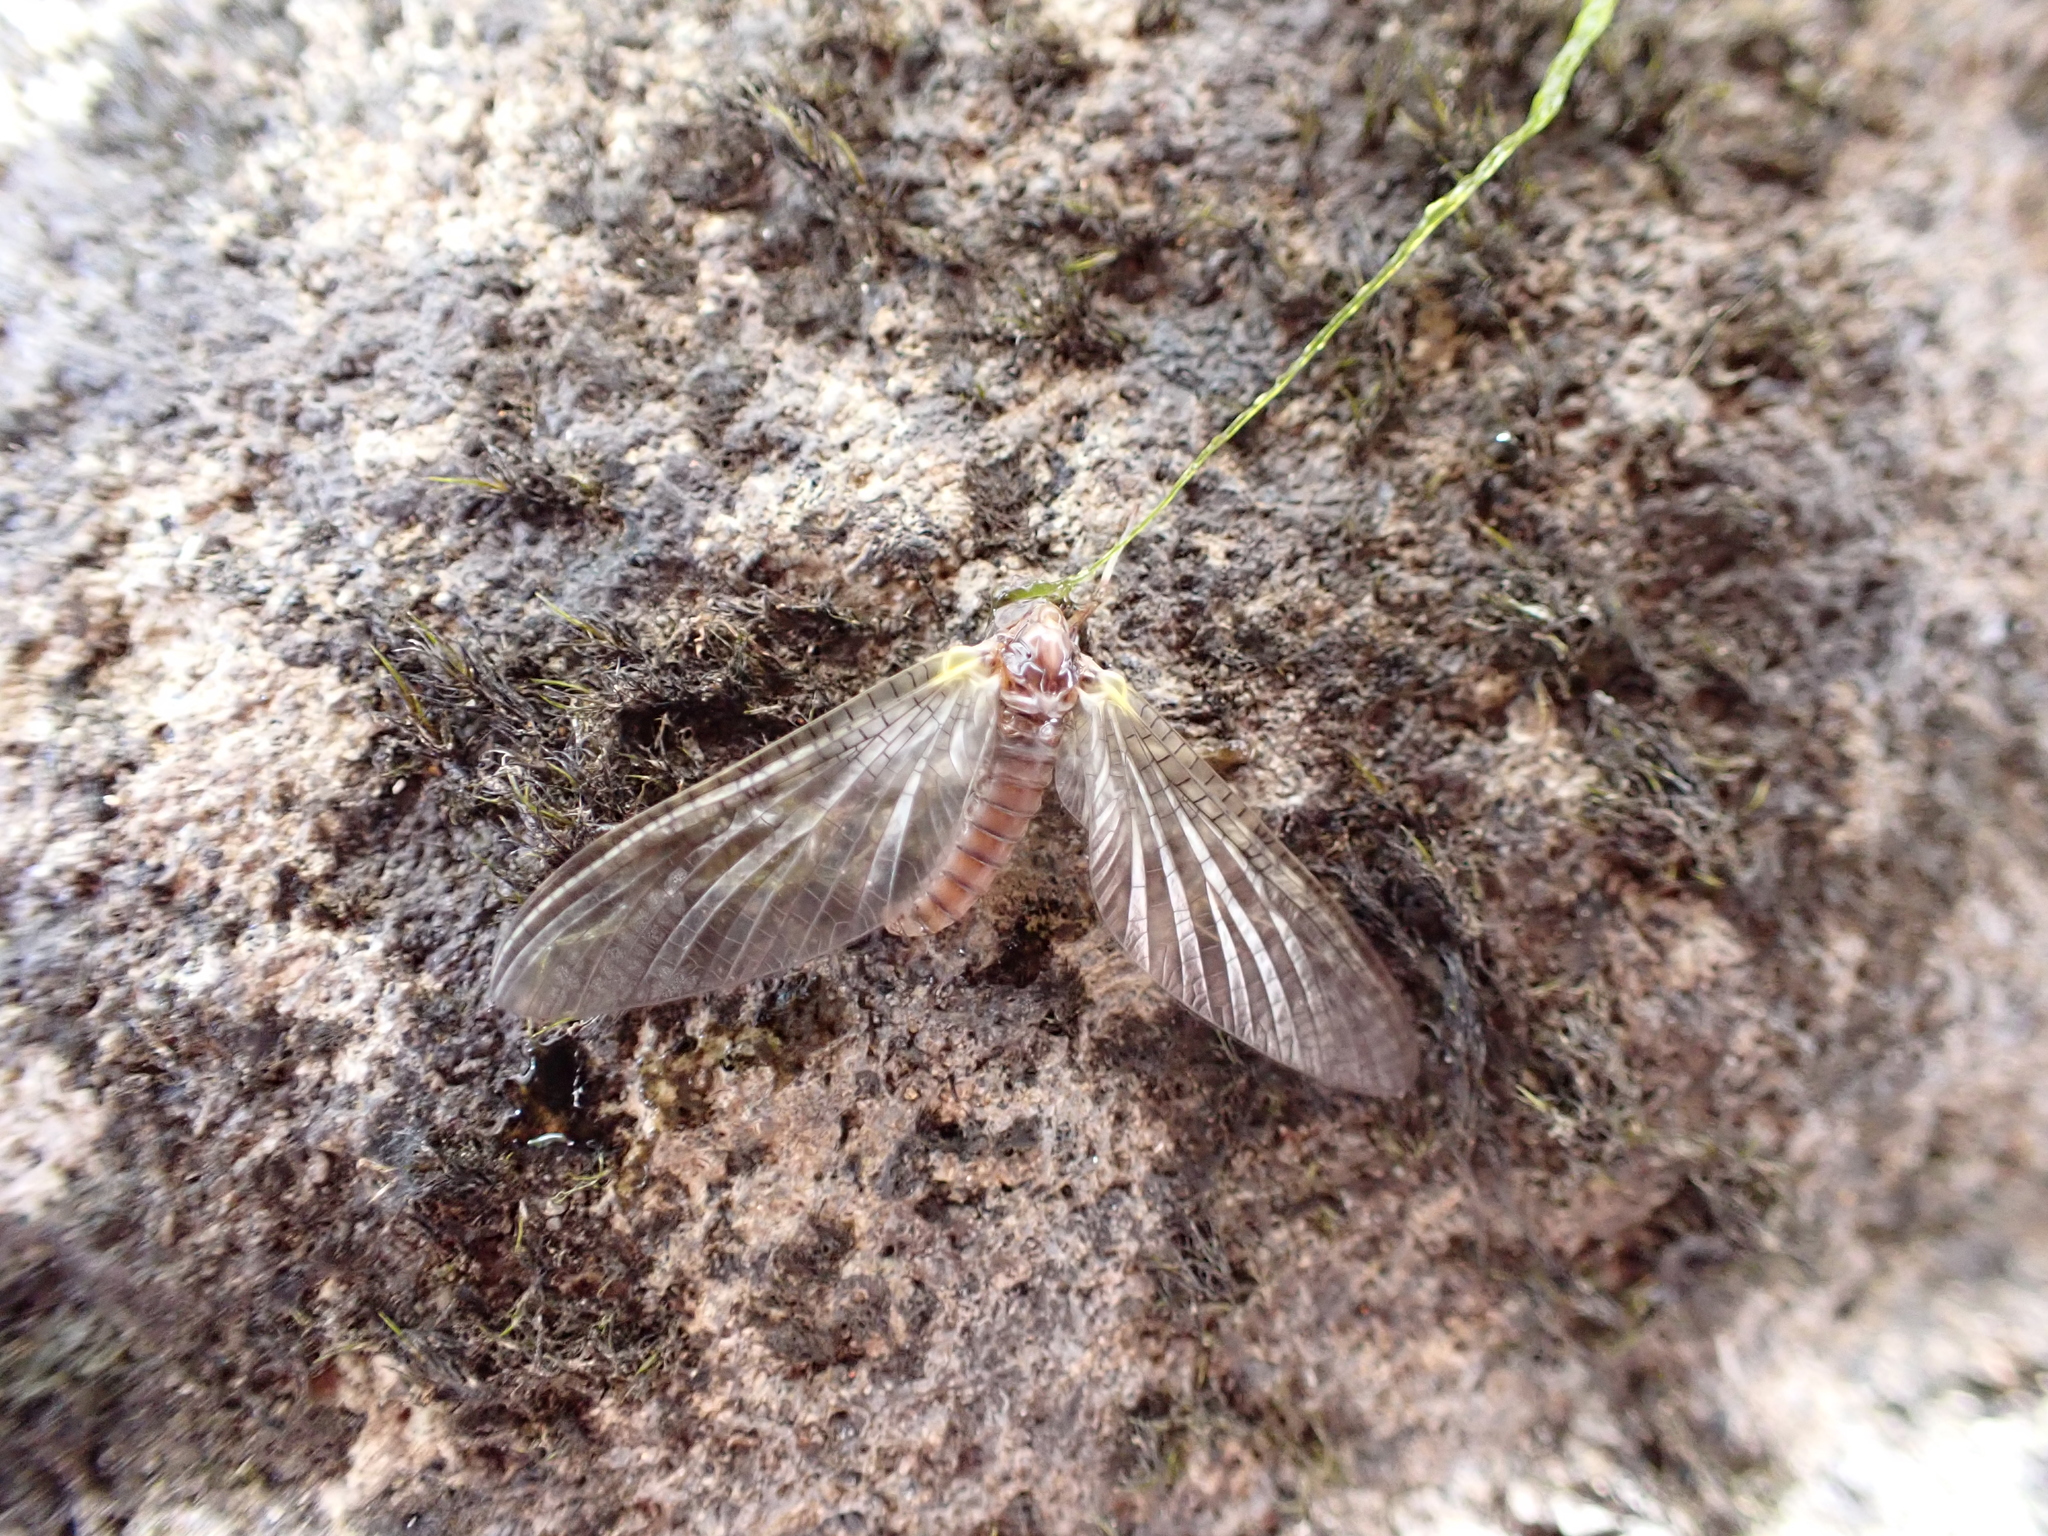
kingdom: Animalia
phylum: Arthropoda
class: Insecta
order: Ephemeroptera
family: Coloburiscidae
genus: Coloburiscus
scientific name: Coloburiscus humeralis
